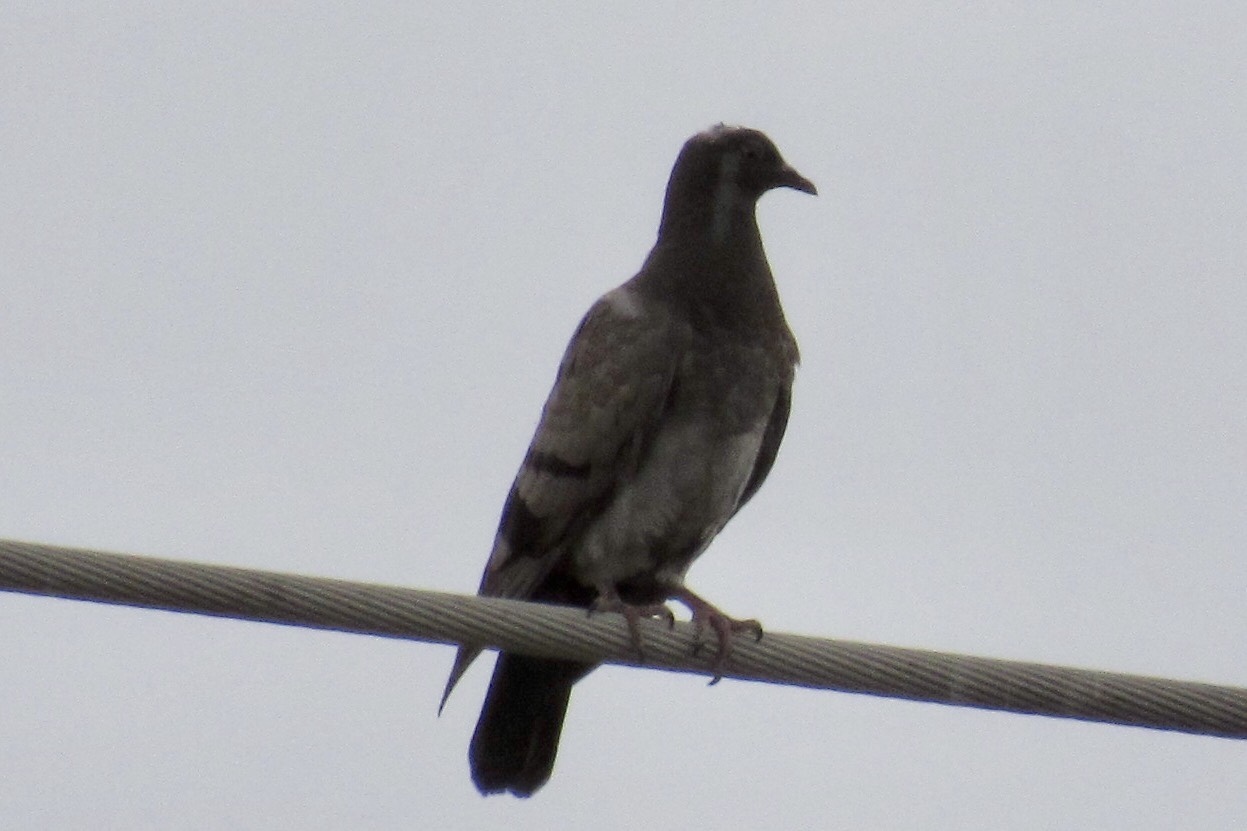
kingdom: Animalia
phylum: Chordata
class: Aves
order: Columbiformes
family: Columbidae
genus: Columba
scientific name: Columba livia
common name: Rock pigeon
